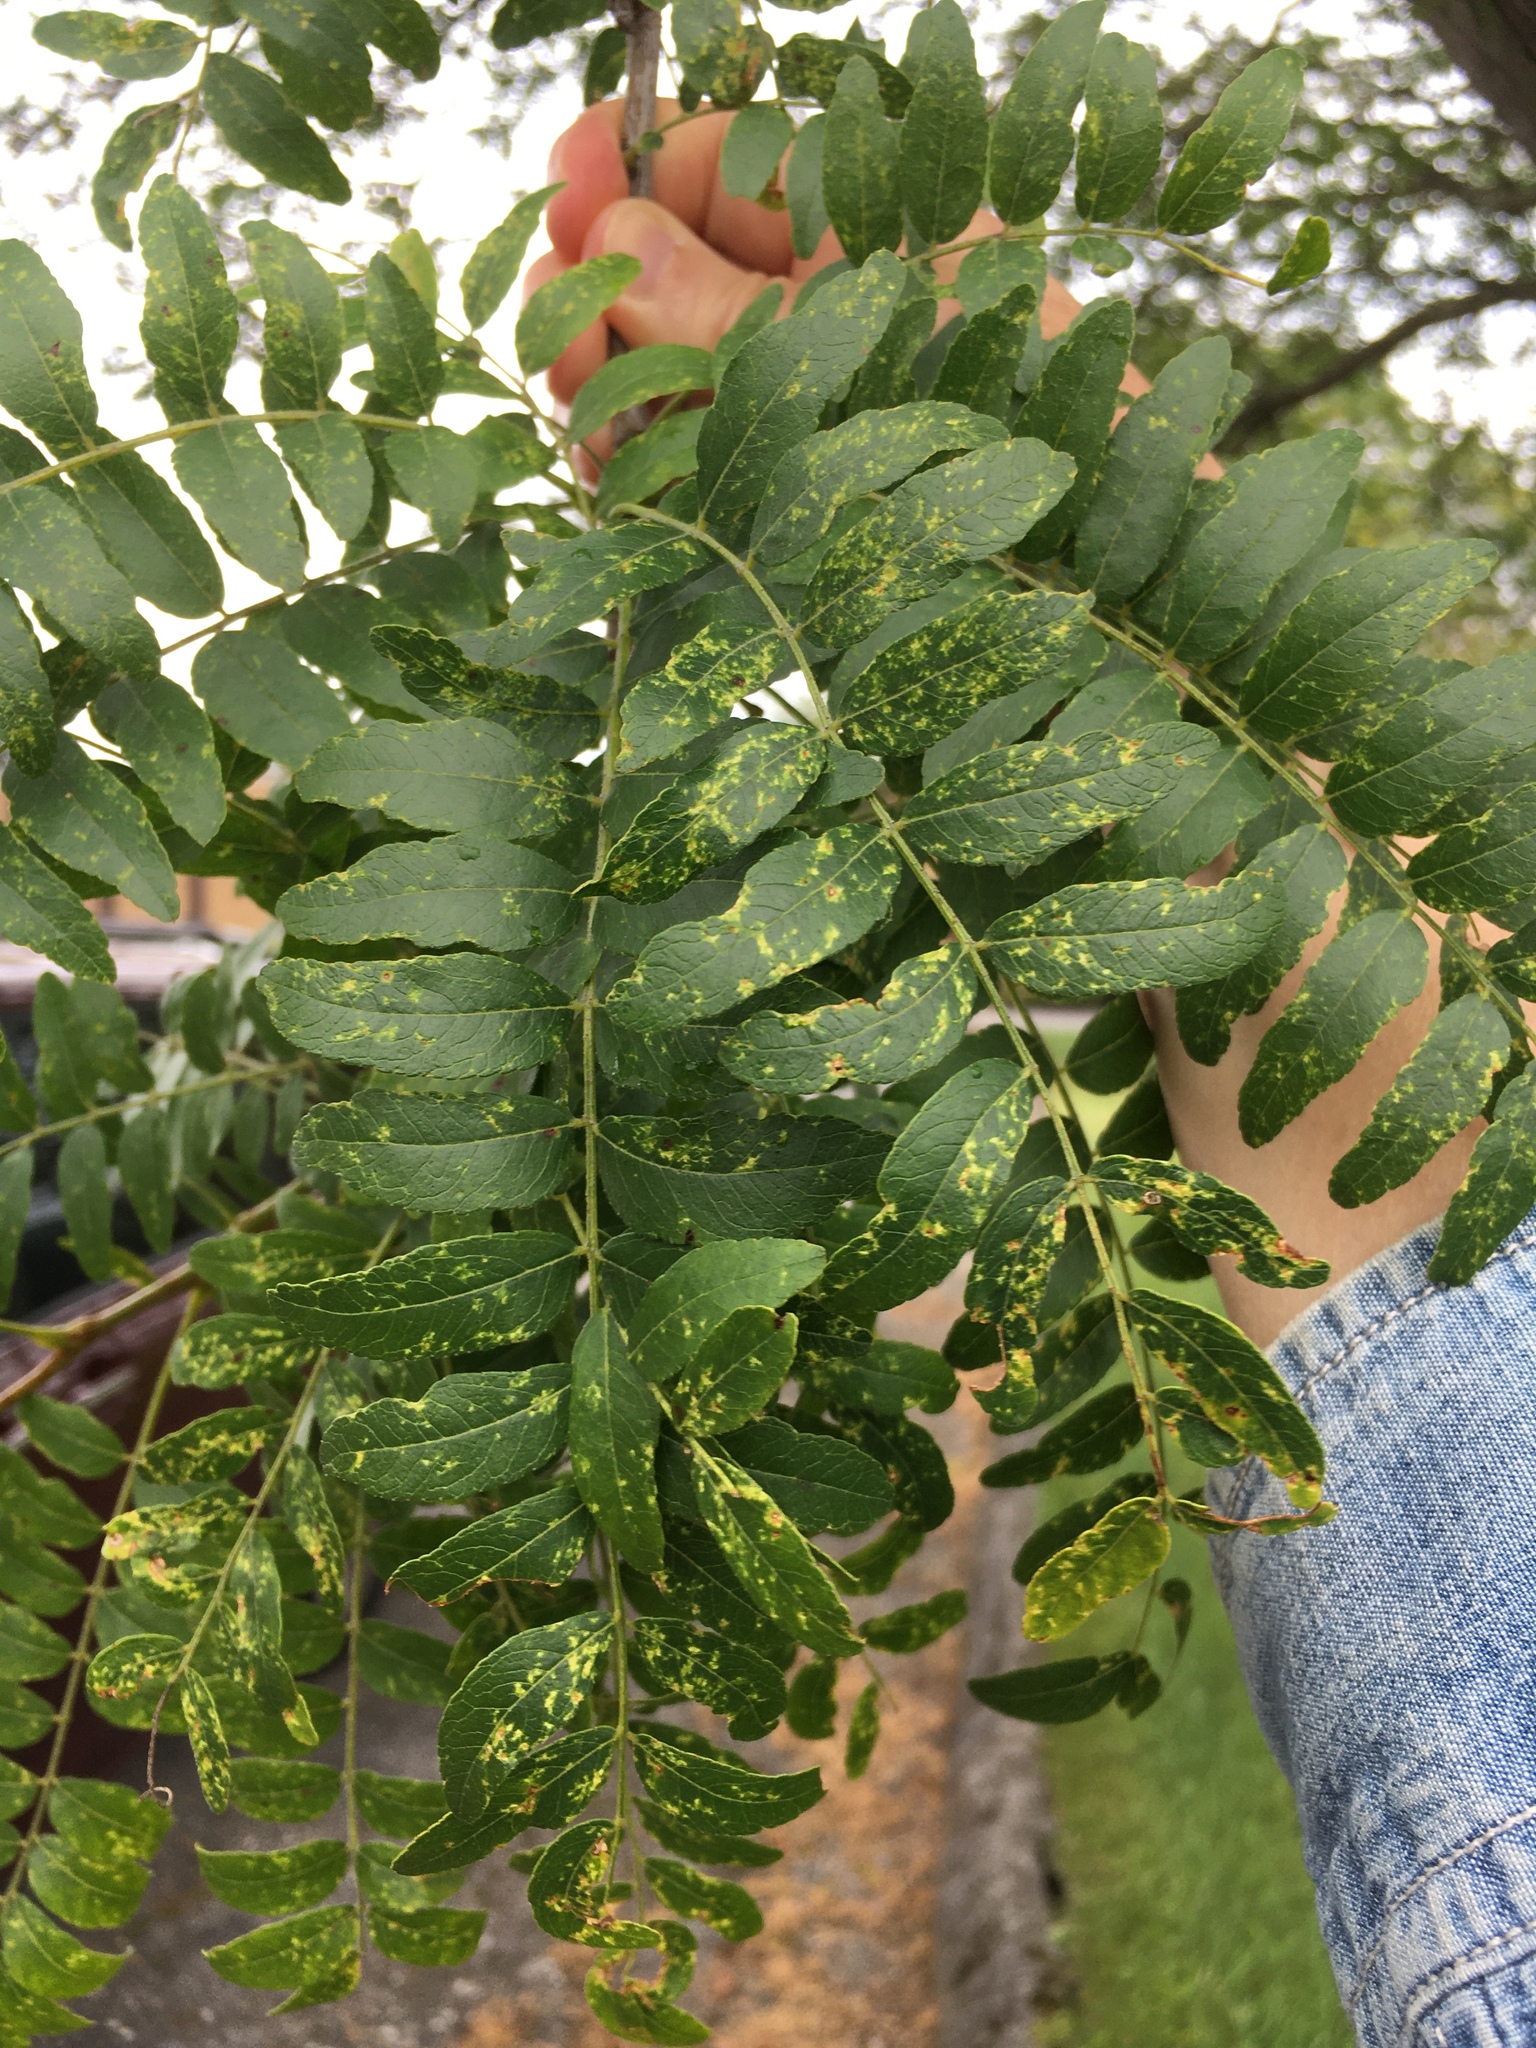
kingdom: Plantae
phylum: Tracheophyta
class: Magnoliopsida
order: Fabales
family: Fabaceae
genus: Gleditsia
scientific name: Gleditsia triacanthos
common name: Common honeylocust
